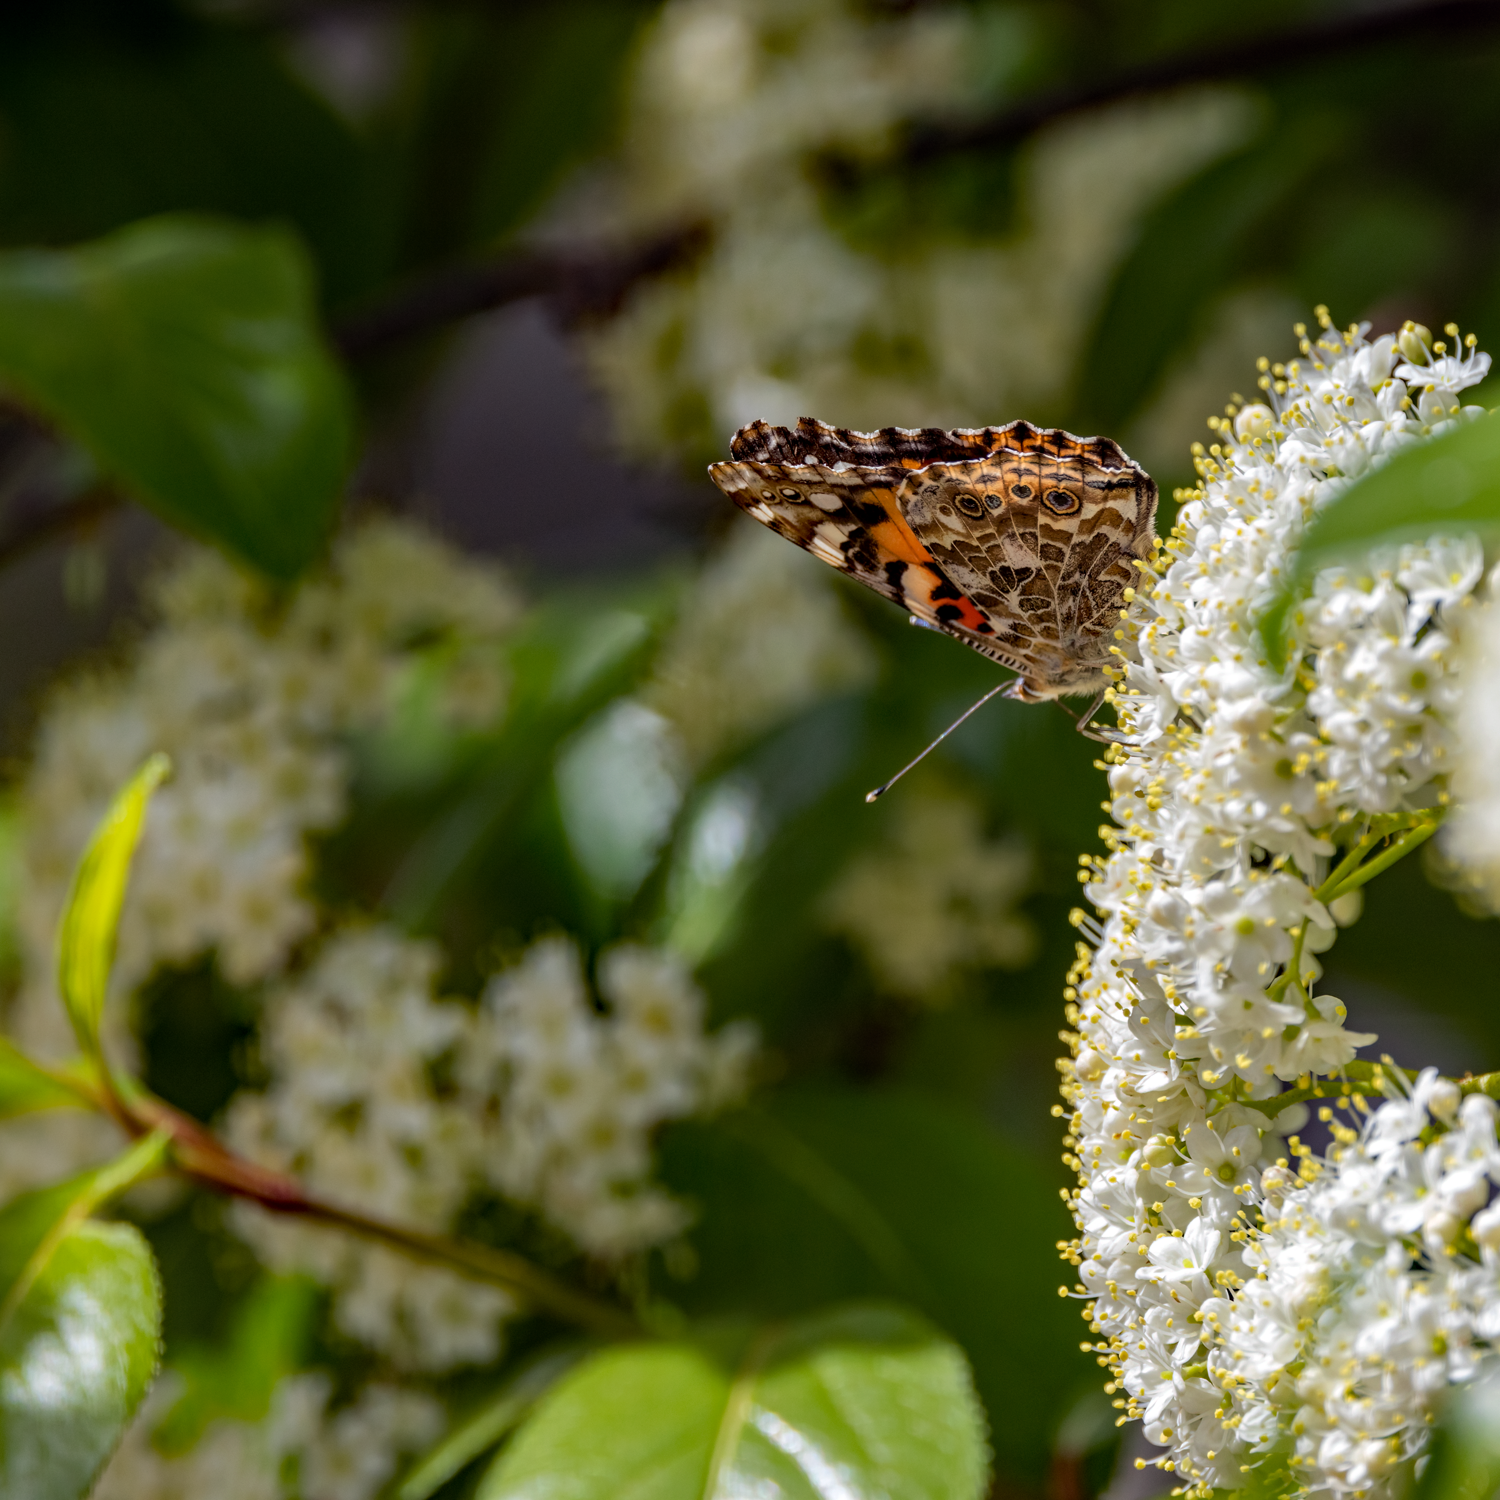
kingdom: Animalia
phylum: Arthropoda
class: Insecta
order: Lepidoptera
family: Nymphalidae
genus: Vanessa
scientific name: Vanessa cardui
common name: Painted lady
